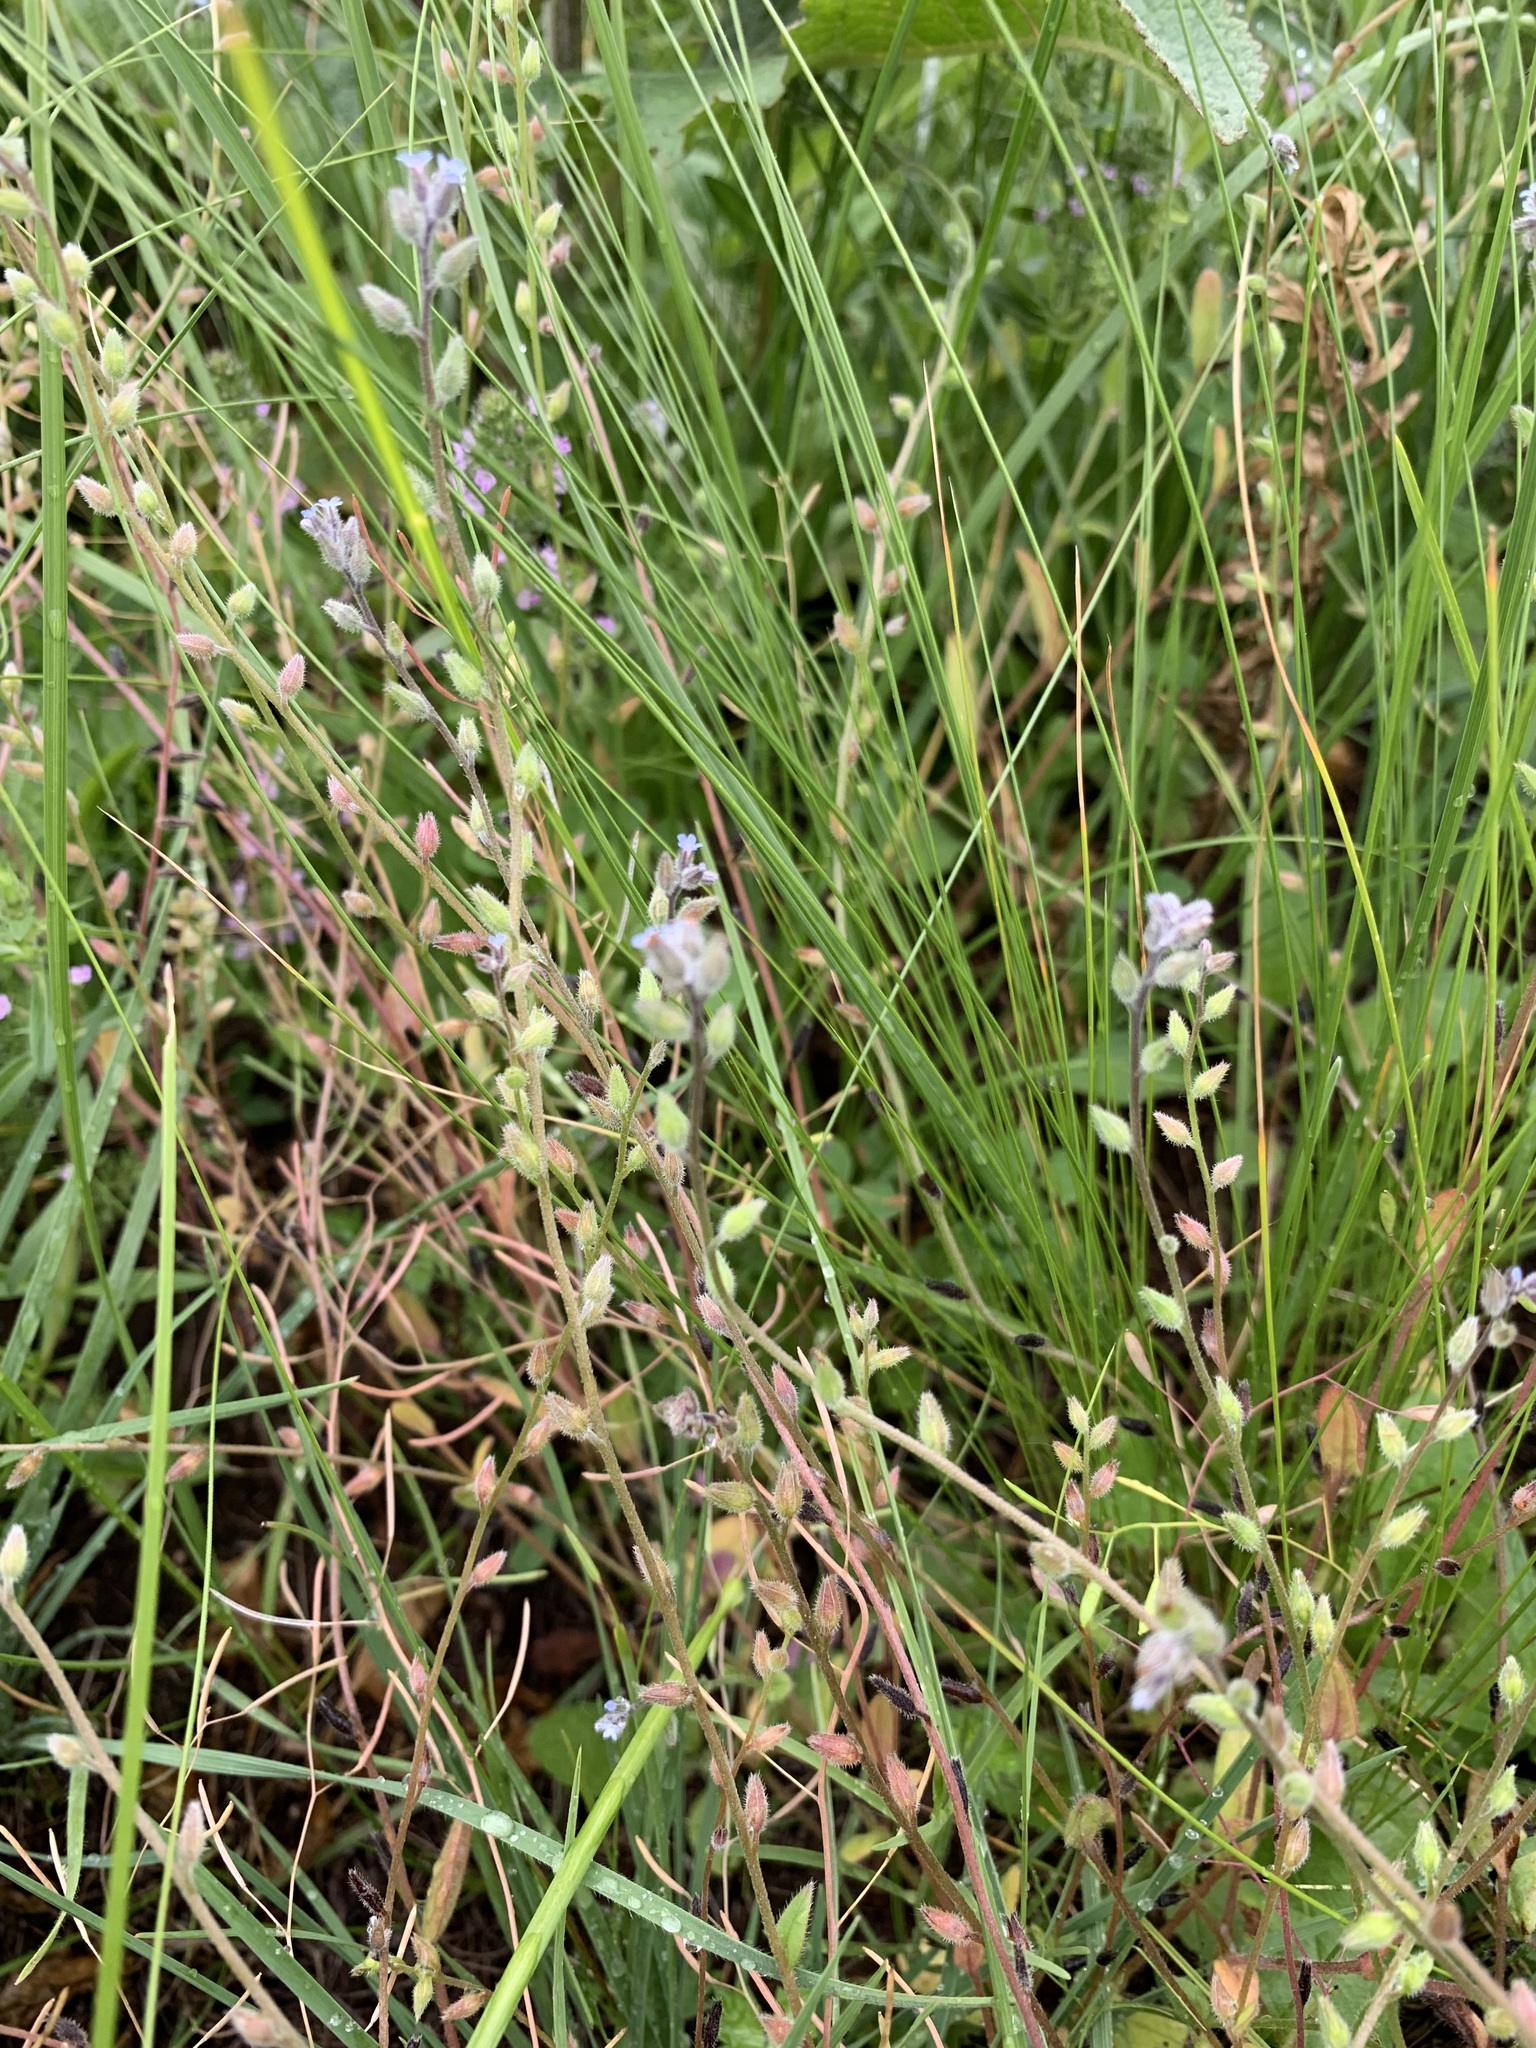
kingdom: Plantae
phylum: Tracheophyta
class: Magnoliopsida
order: Boraginales
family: Boraginaceae
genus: Myosotis
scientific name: Myosotis stricta
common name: Strict forget-me-not
